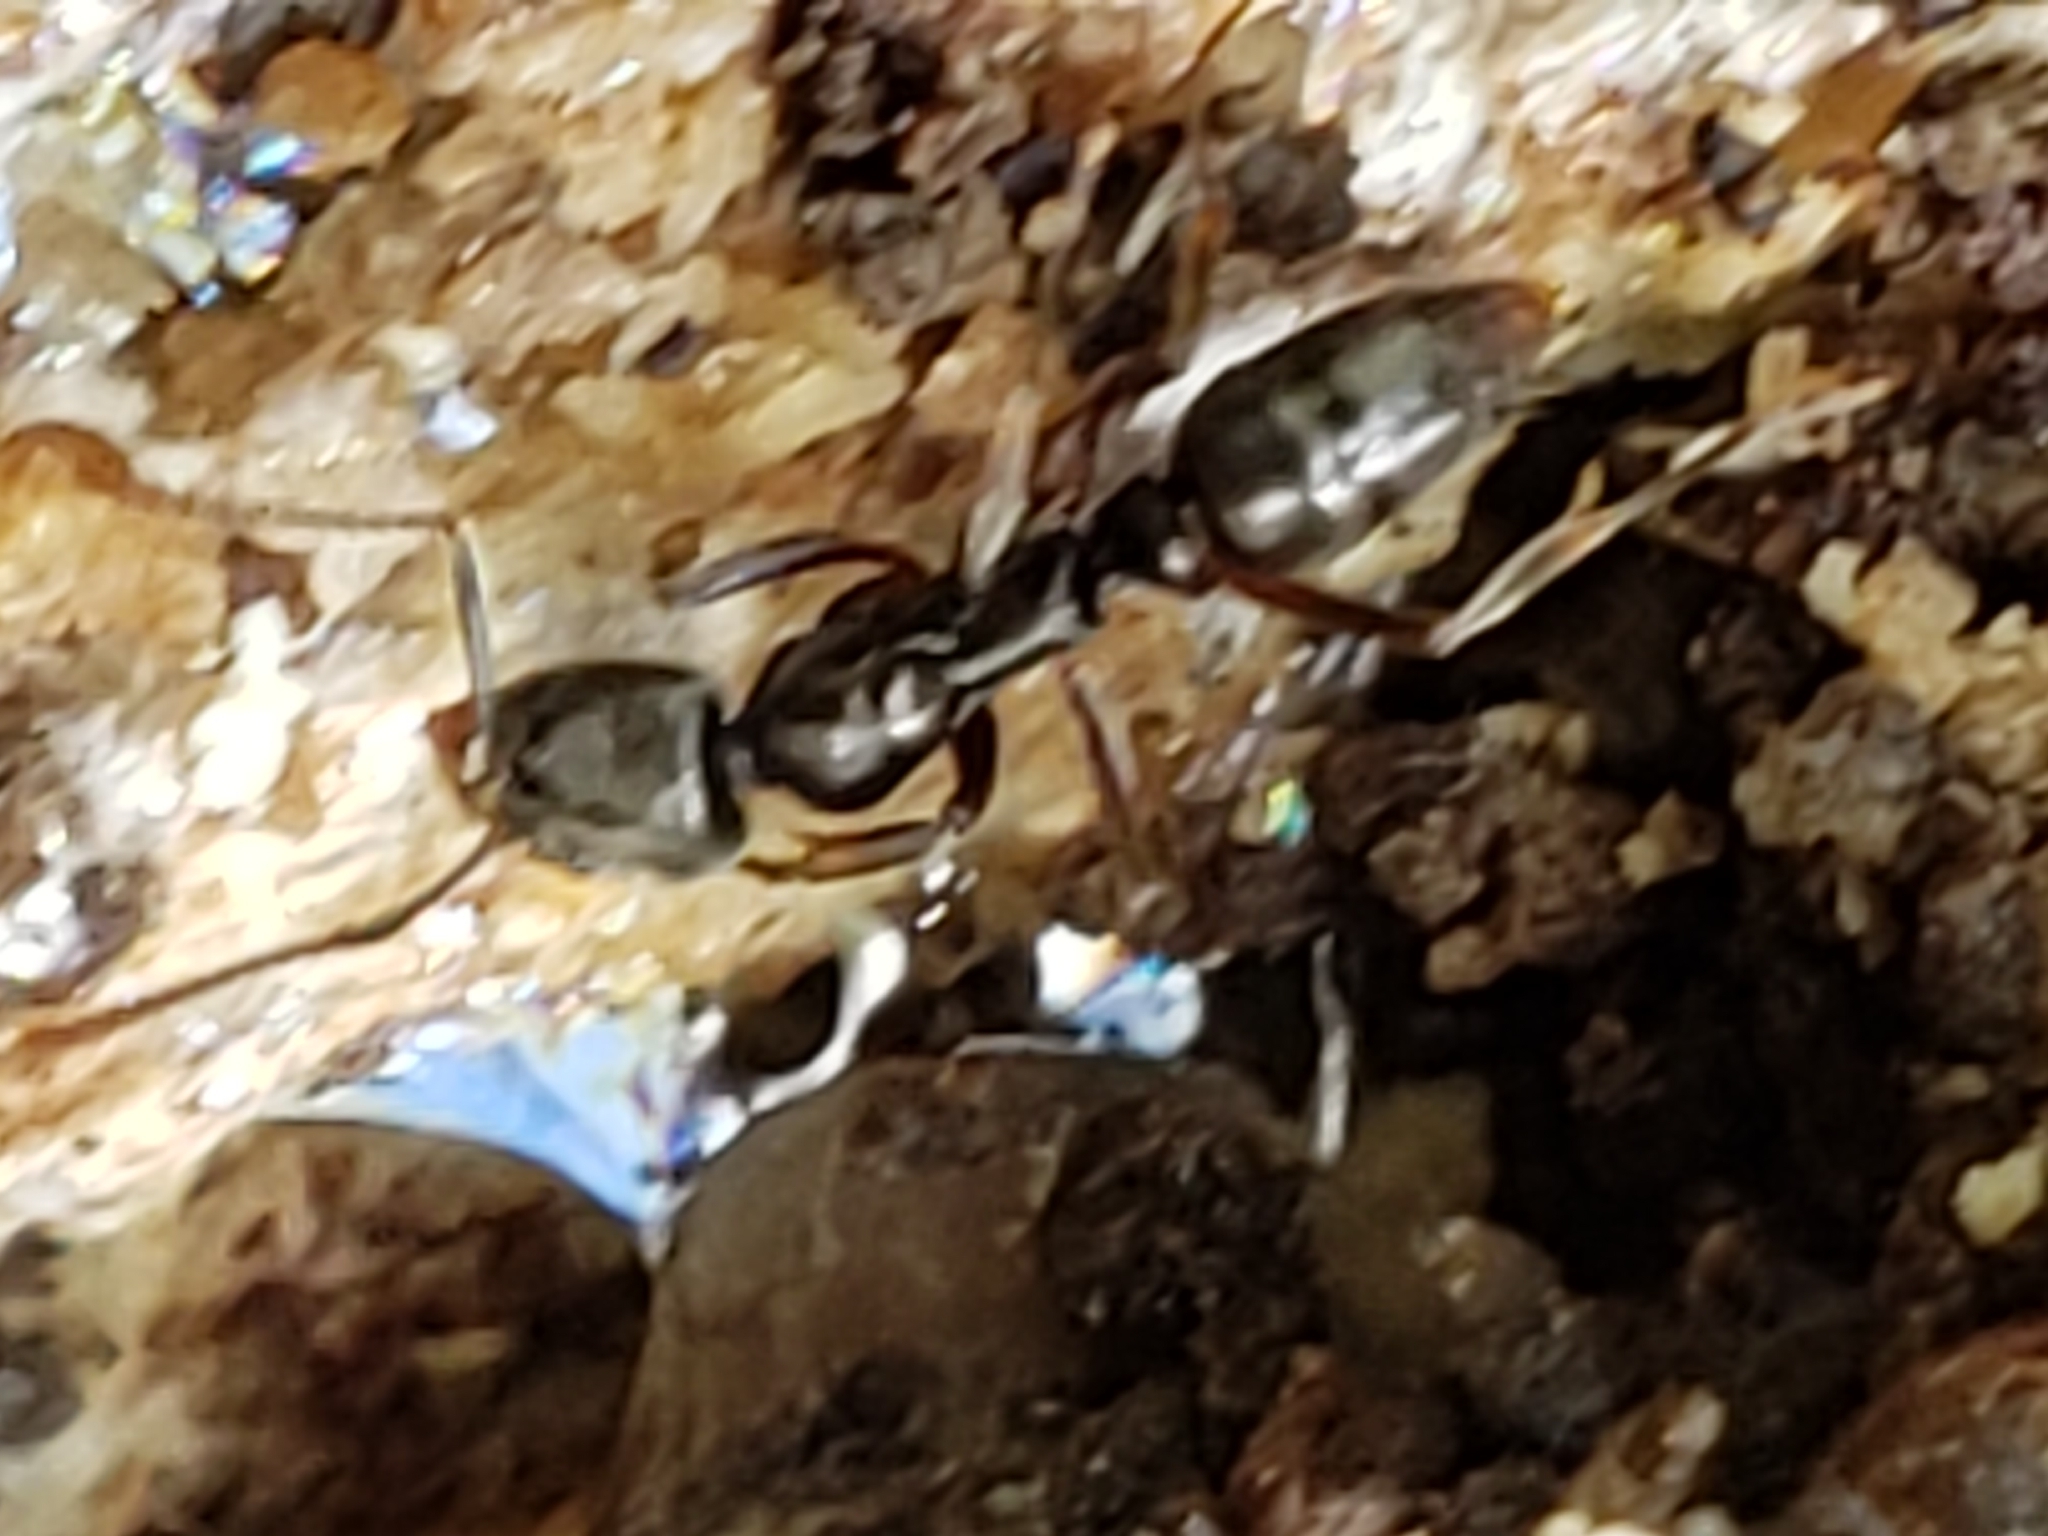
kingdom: Animalia
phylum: Arthropoda
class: Insecta
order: Hymenoptera
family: Formicidae
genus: Pachycondyla
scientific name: Pachycondyla chinensis
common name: Asian needle ant
